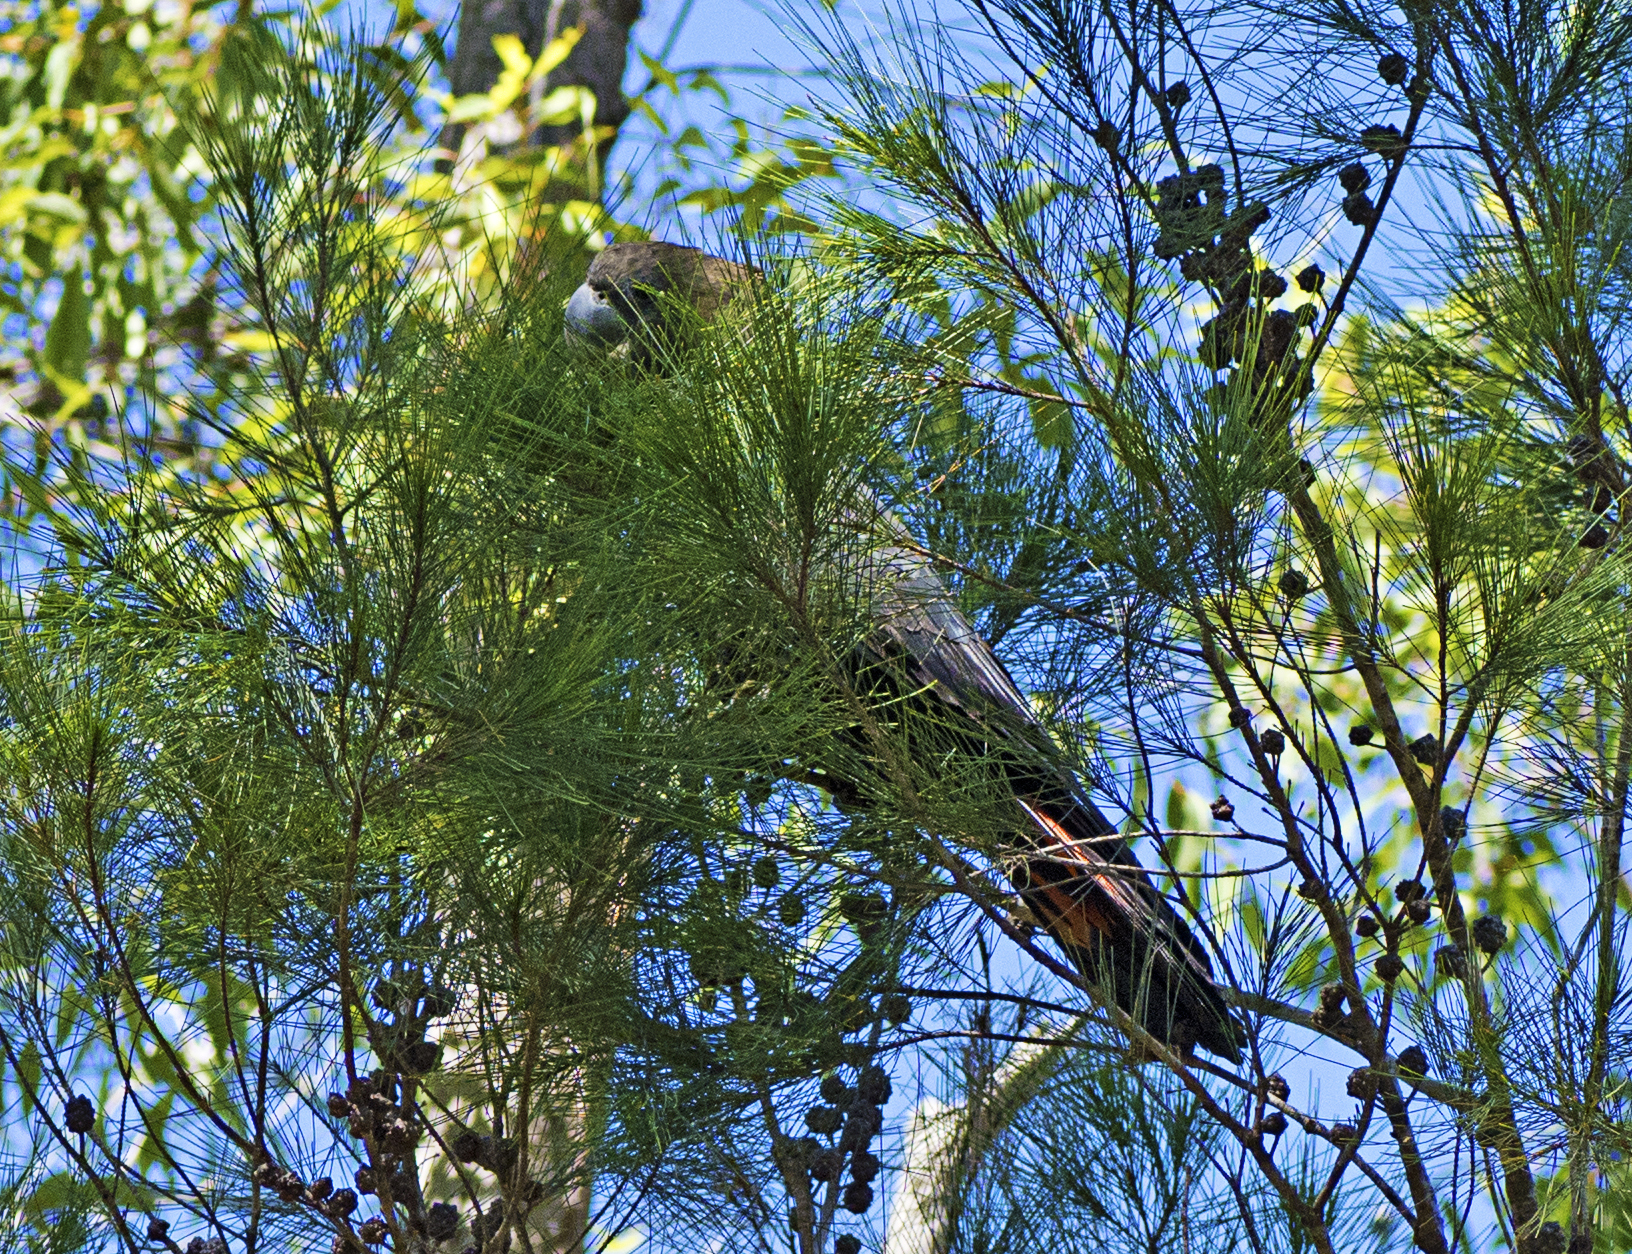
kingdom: Animalia
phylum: Chordata
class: Aves
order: Psittaciformes
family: Psittacidae
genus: Calyptorhynchus
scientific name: Calyptorhynchus lathami
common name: Glossy black cockatoo
